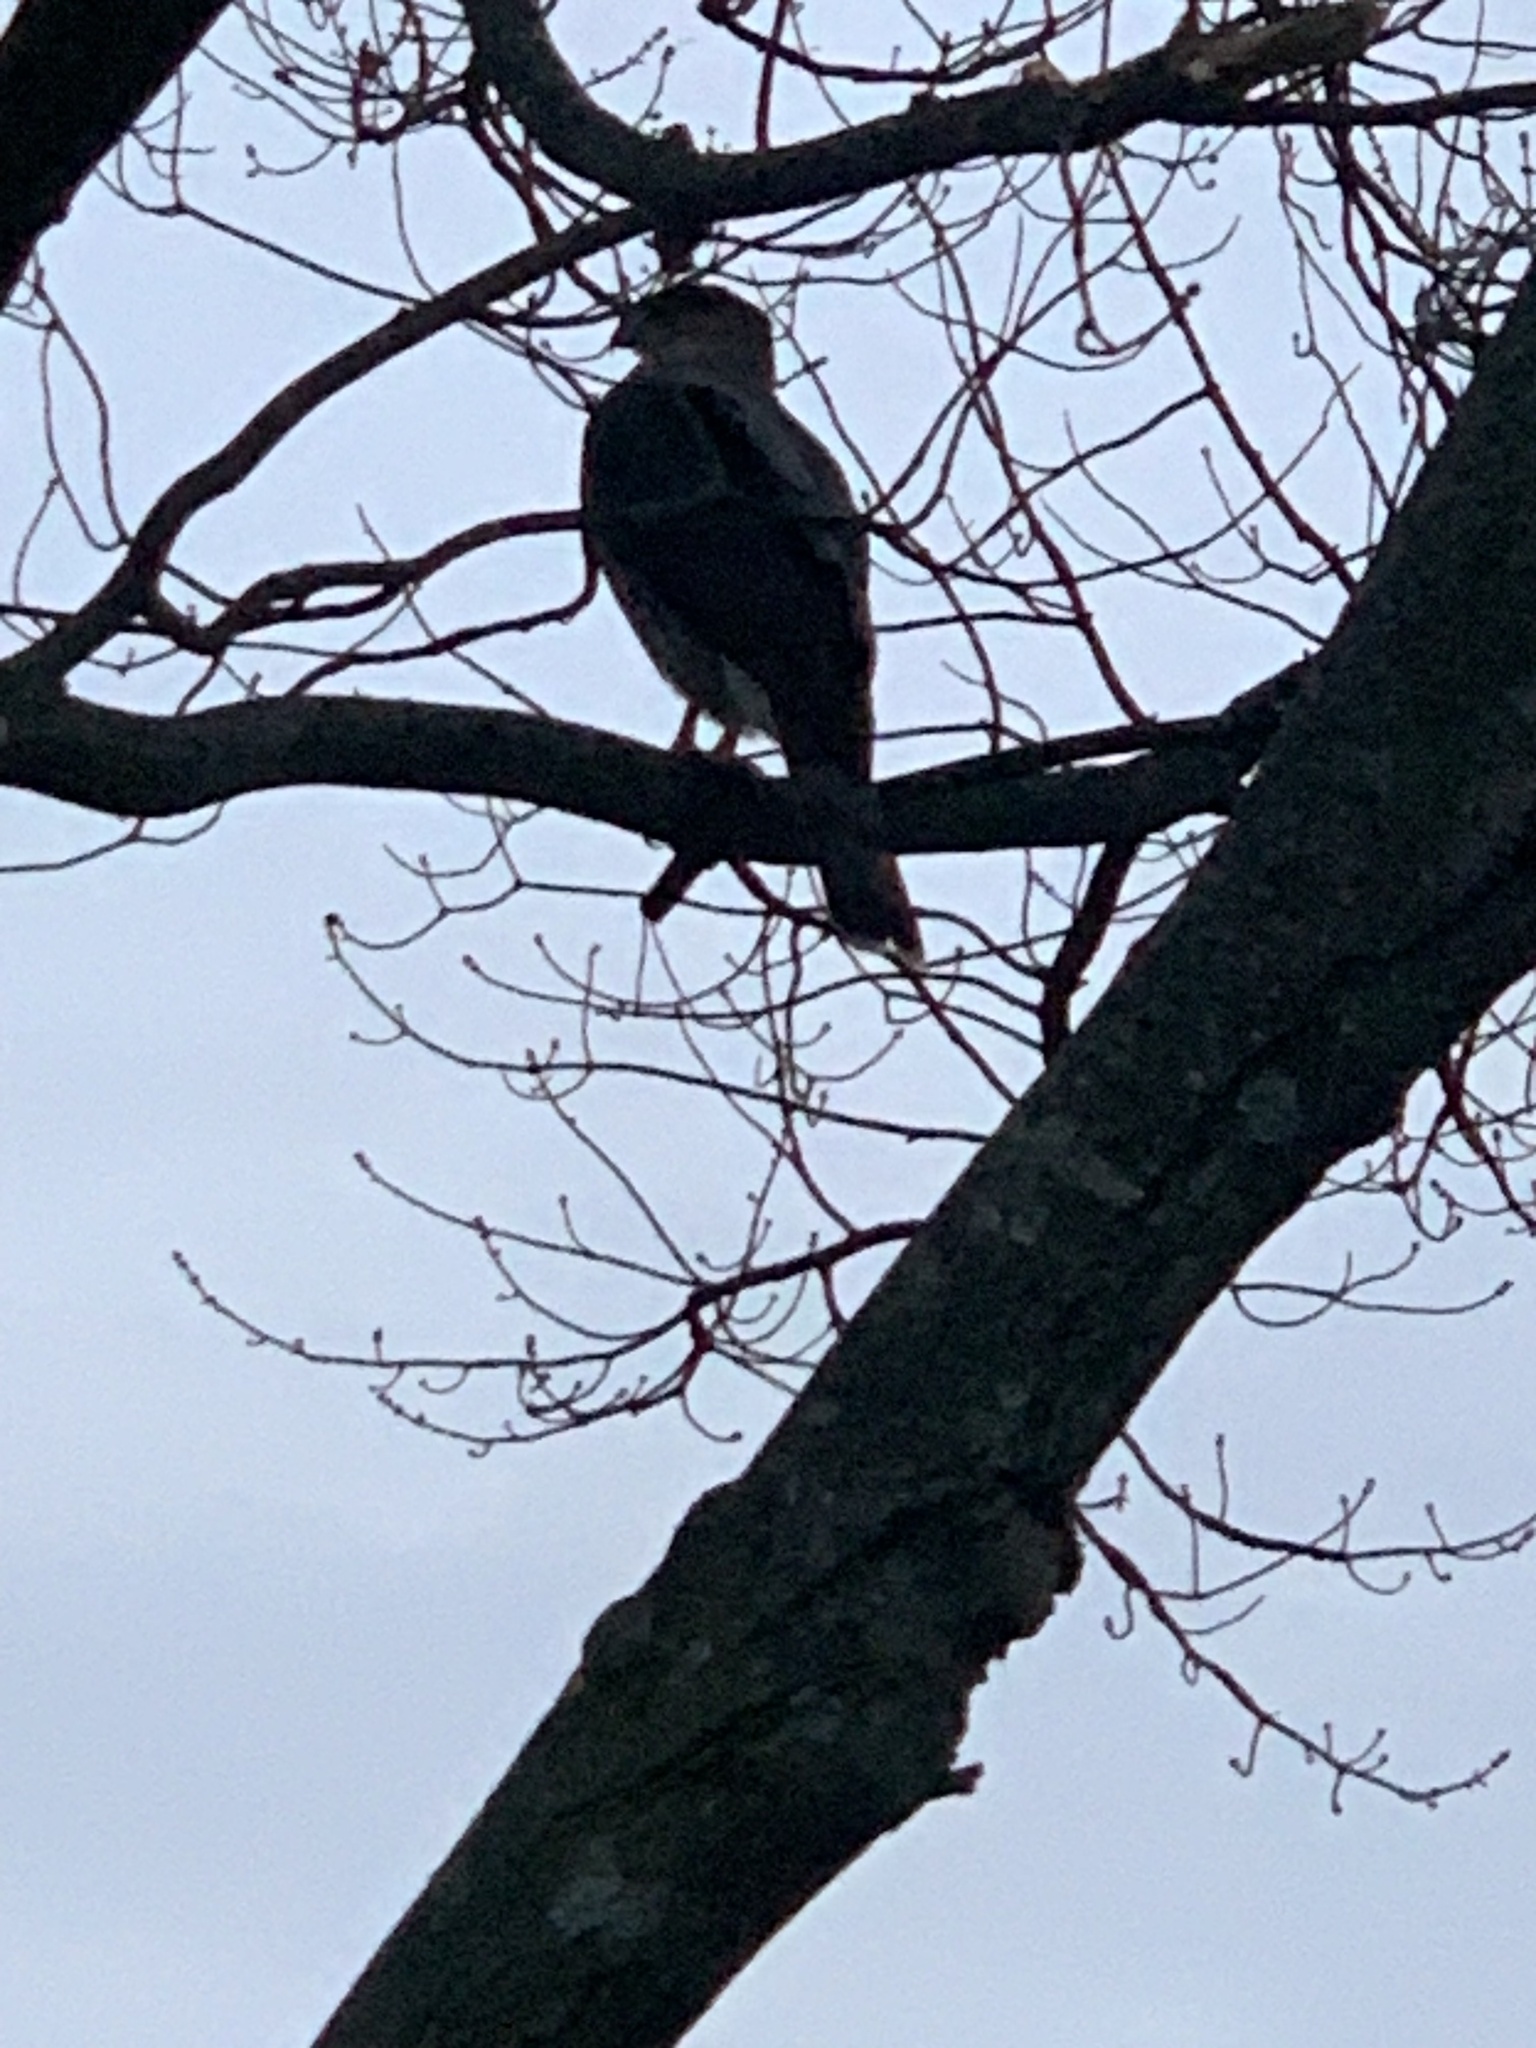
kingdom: Animalia
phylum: Chordata
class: Aves
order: Accipitriformes
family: Accipitridae
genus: Accipiter
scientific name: Accipiter cooperii
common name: Cooper's hawk
